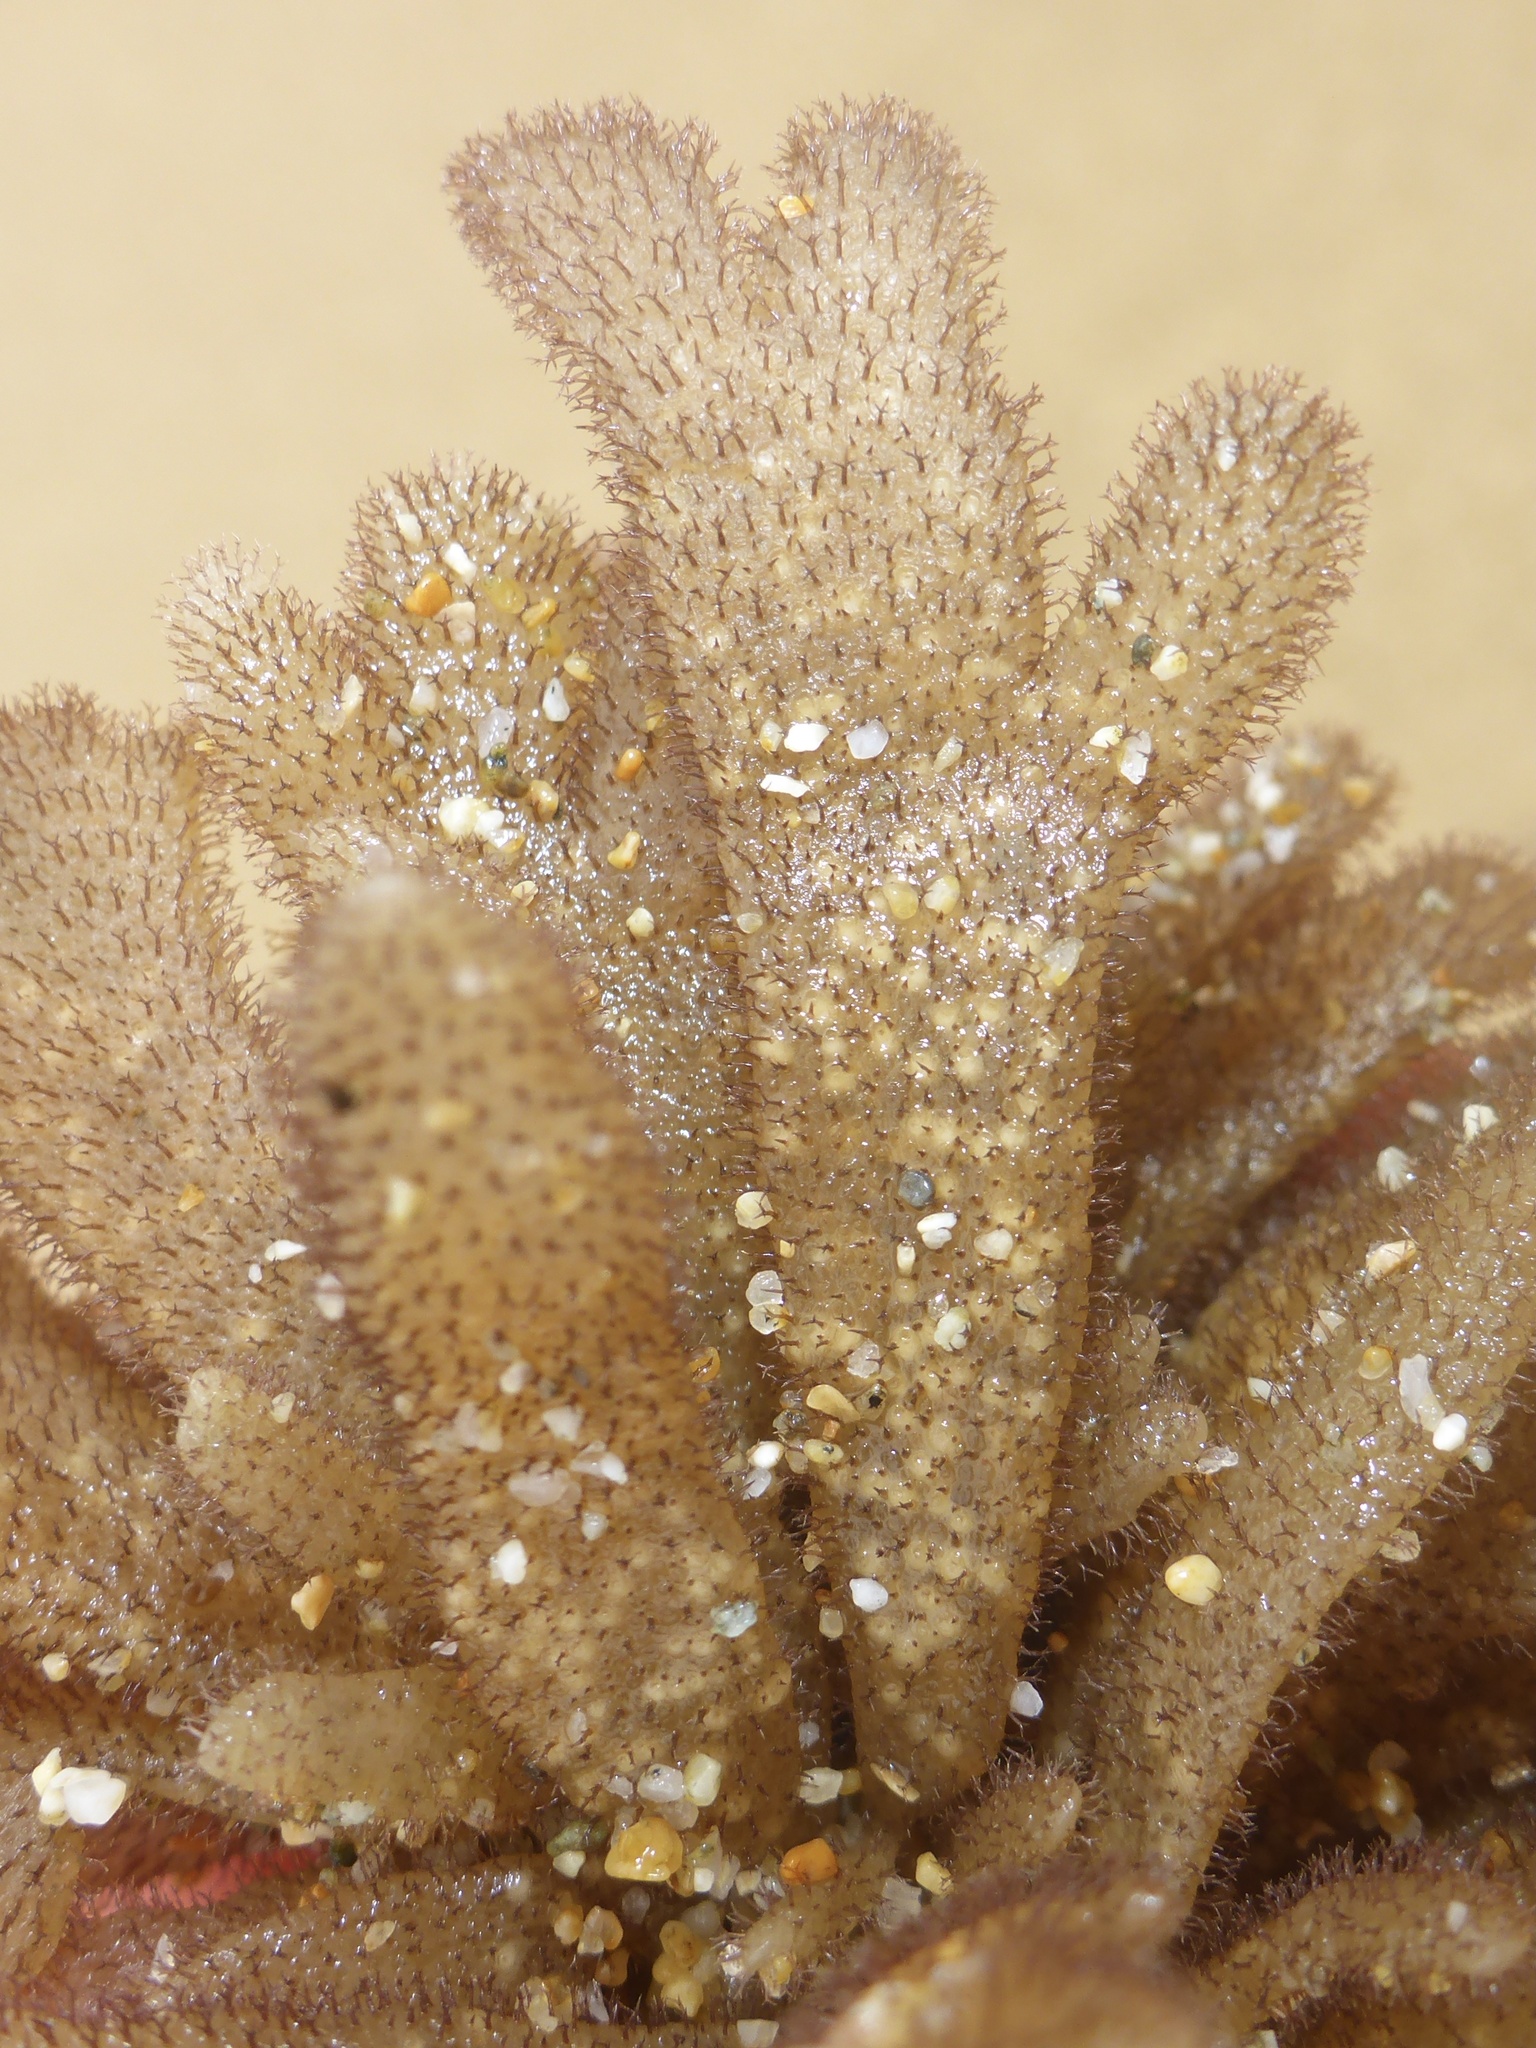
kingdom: Animalia
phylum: Bryozoa
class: Gymnolaemata
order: Ctenostomatida
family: Flustrellidridae
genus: Flustrellidra
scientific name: Flustrellidra corniculata
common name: Spiny leather bryozoan
